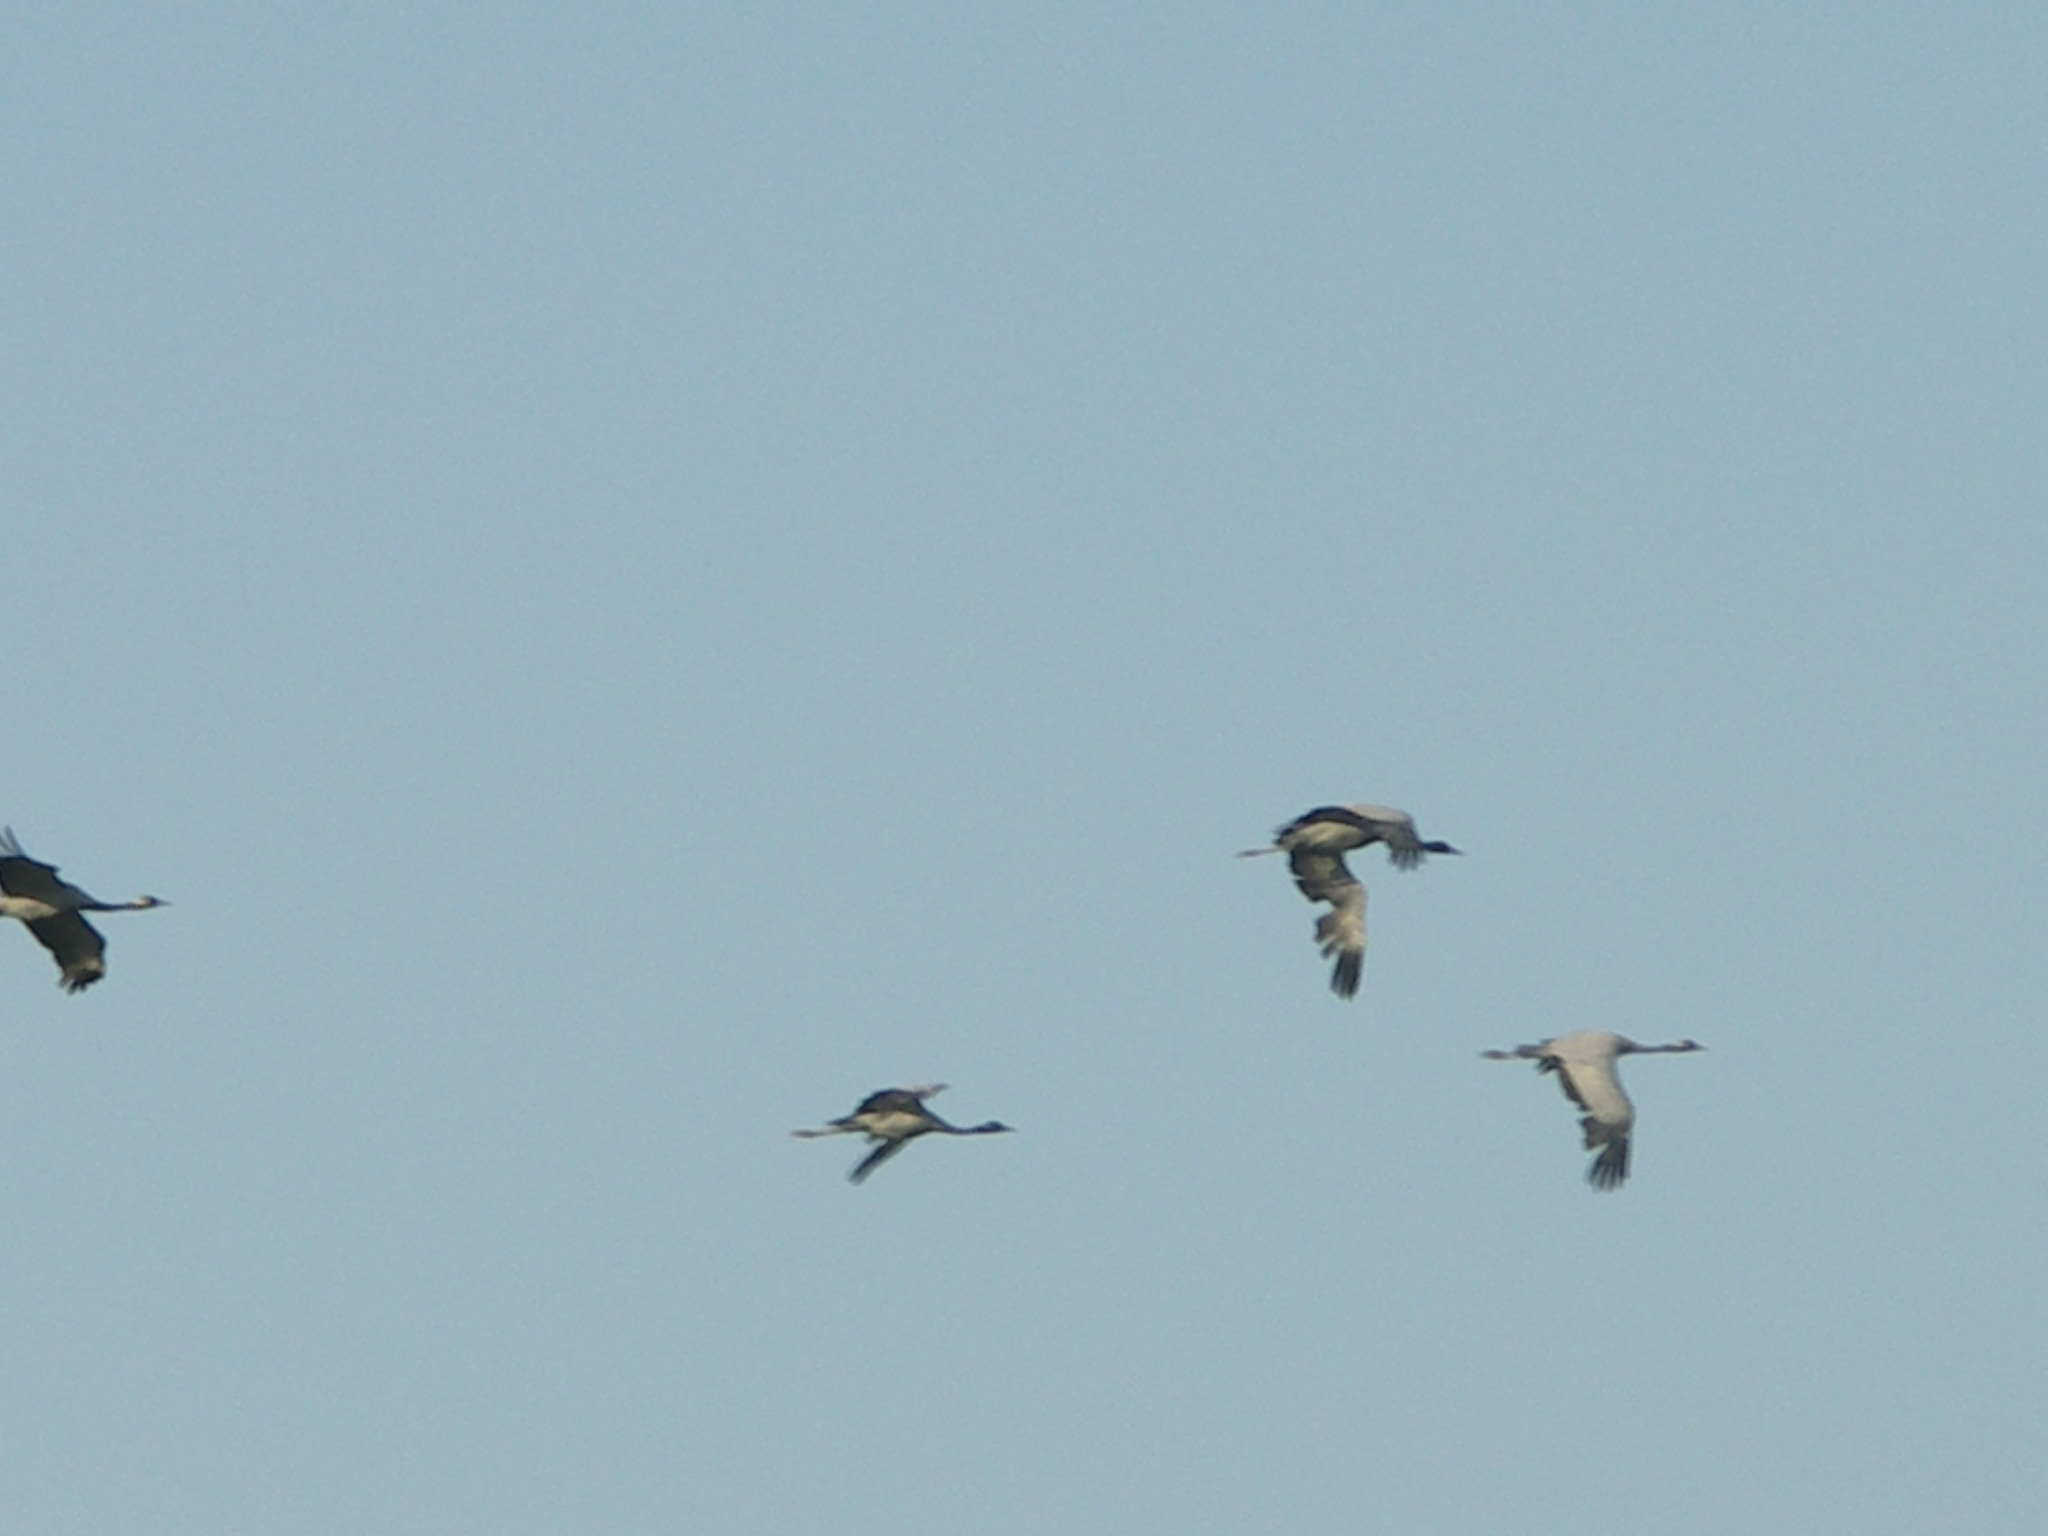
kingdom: Animalia
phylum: Chordata
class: Aves
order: Gruiformes
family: Gruidae
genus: Anthropoides
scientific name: Anthropoides virgo
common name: Demoiselle crane
